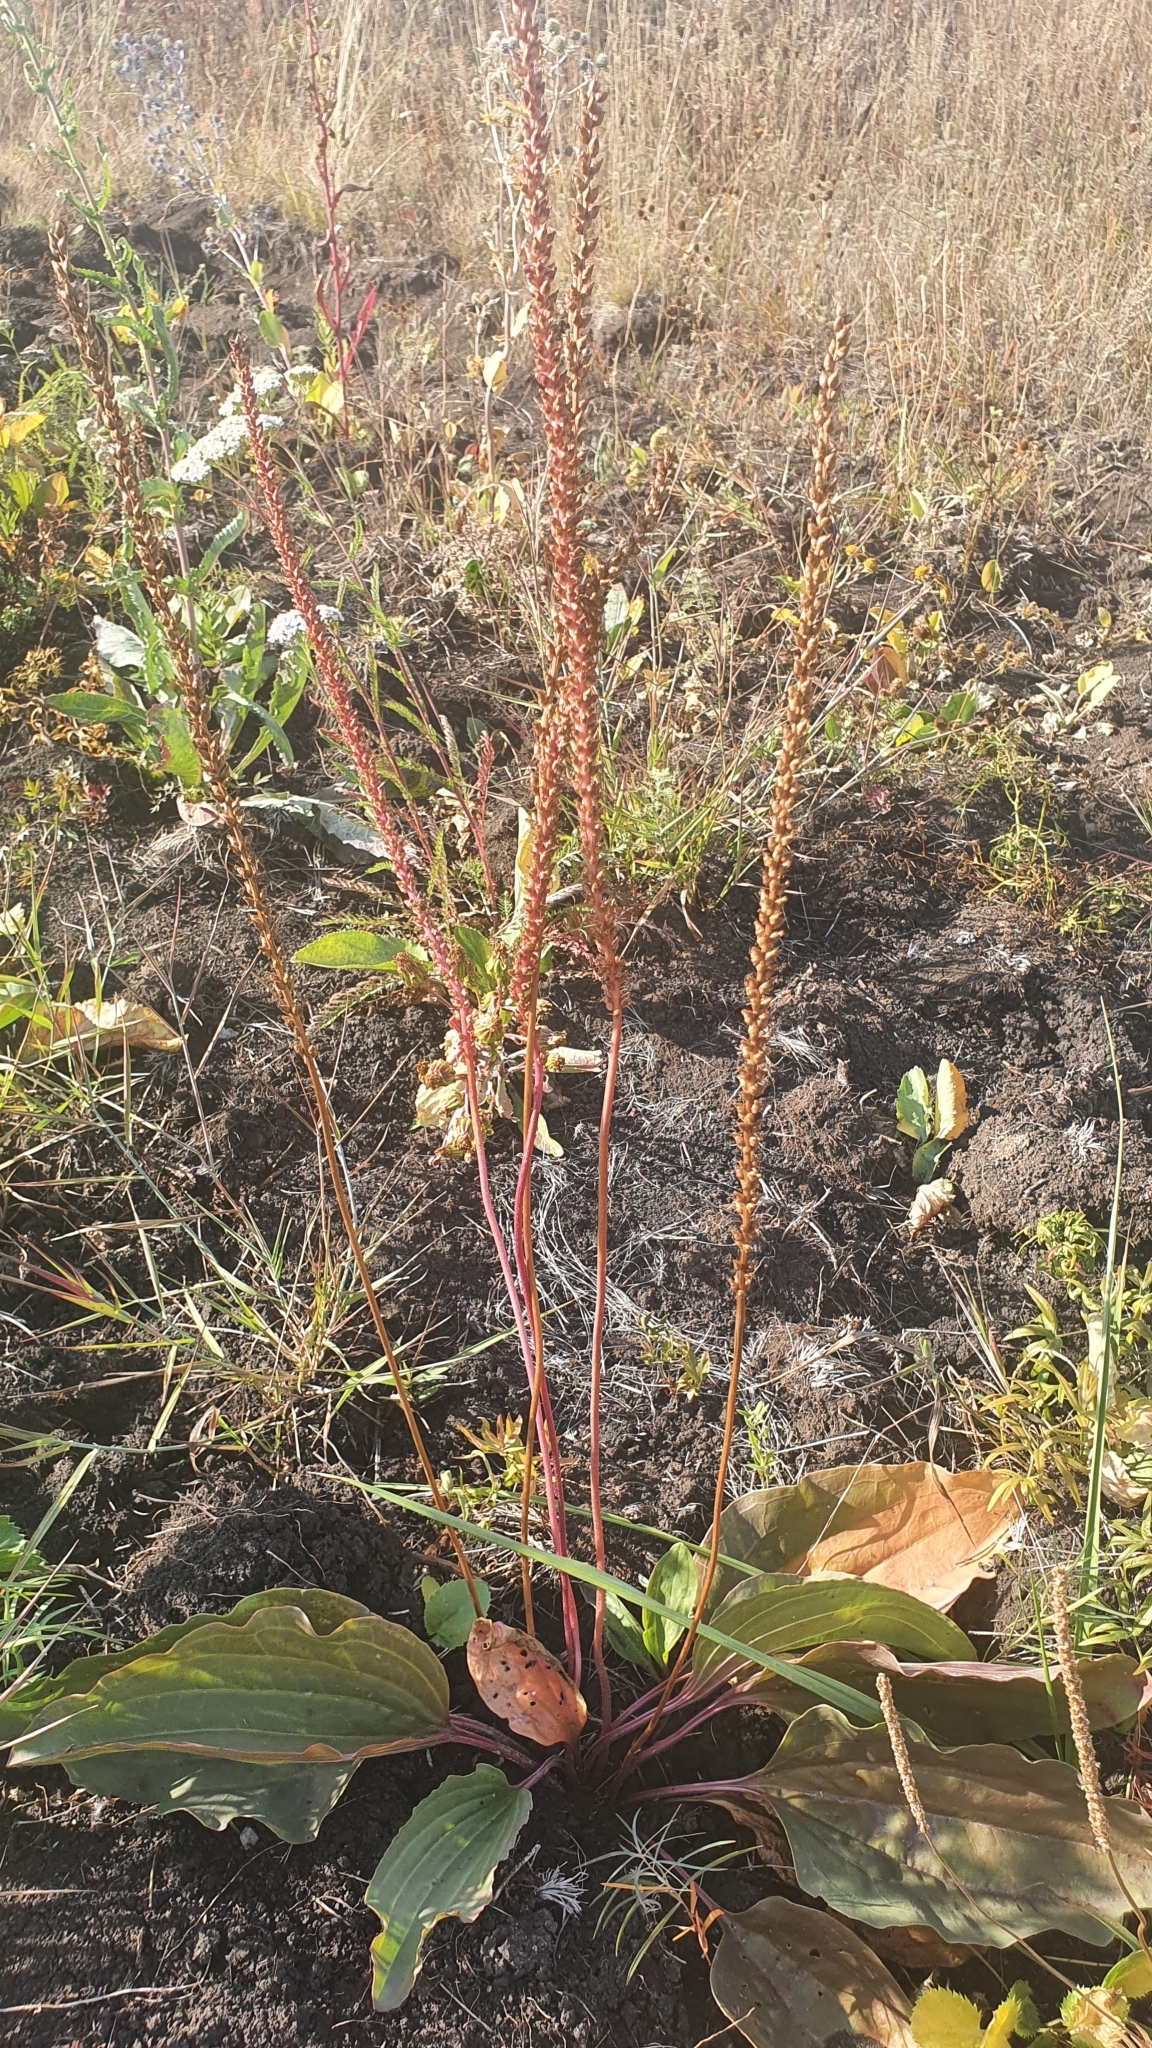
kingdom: Plantae
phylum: Tracheophyta
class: Magnoliopsida
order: Lamiales
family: Plantaginaceae
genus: Plantago
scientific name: Plantago cornuti
